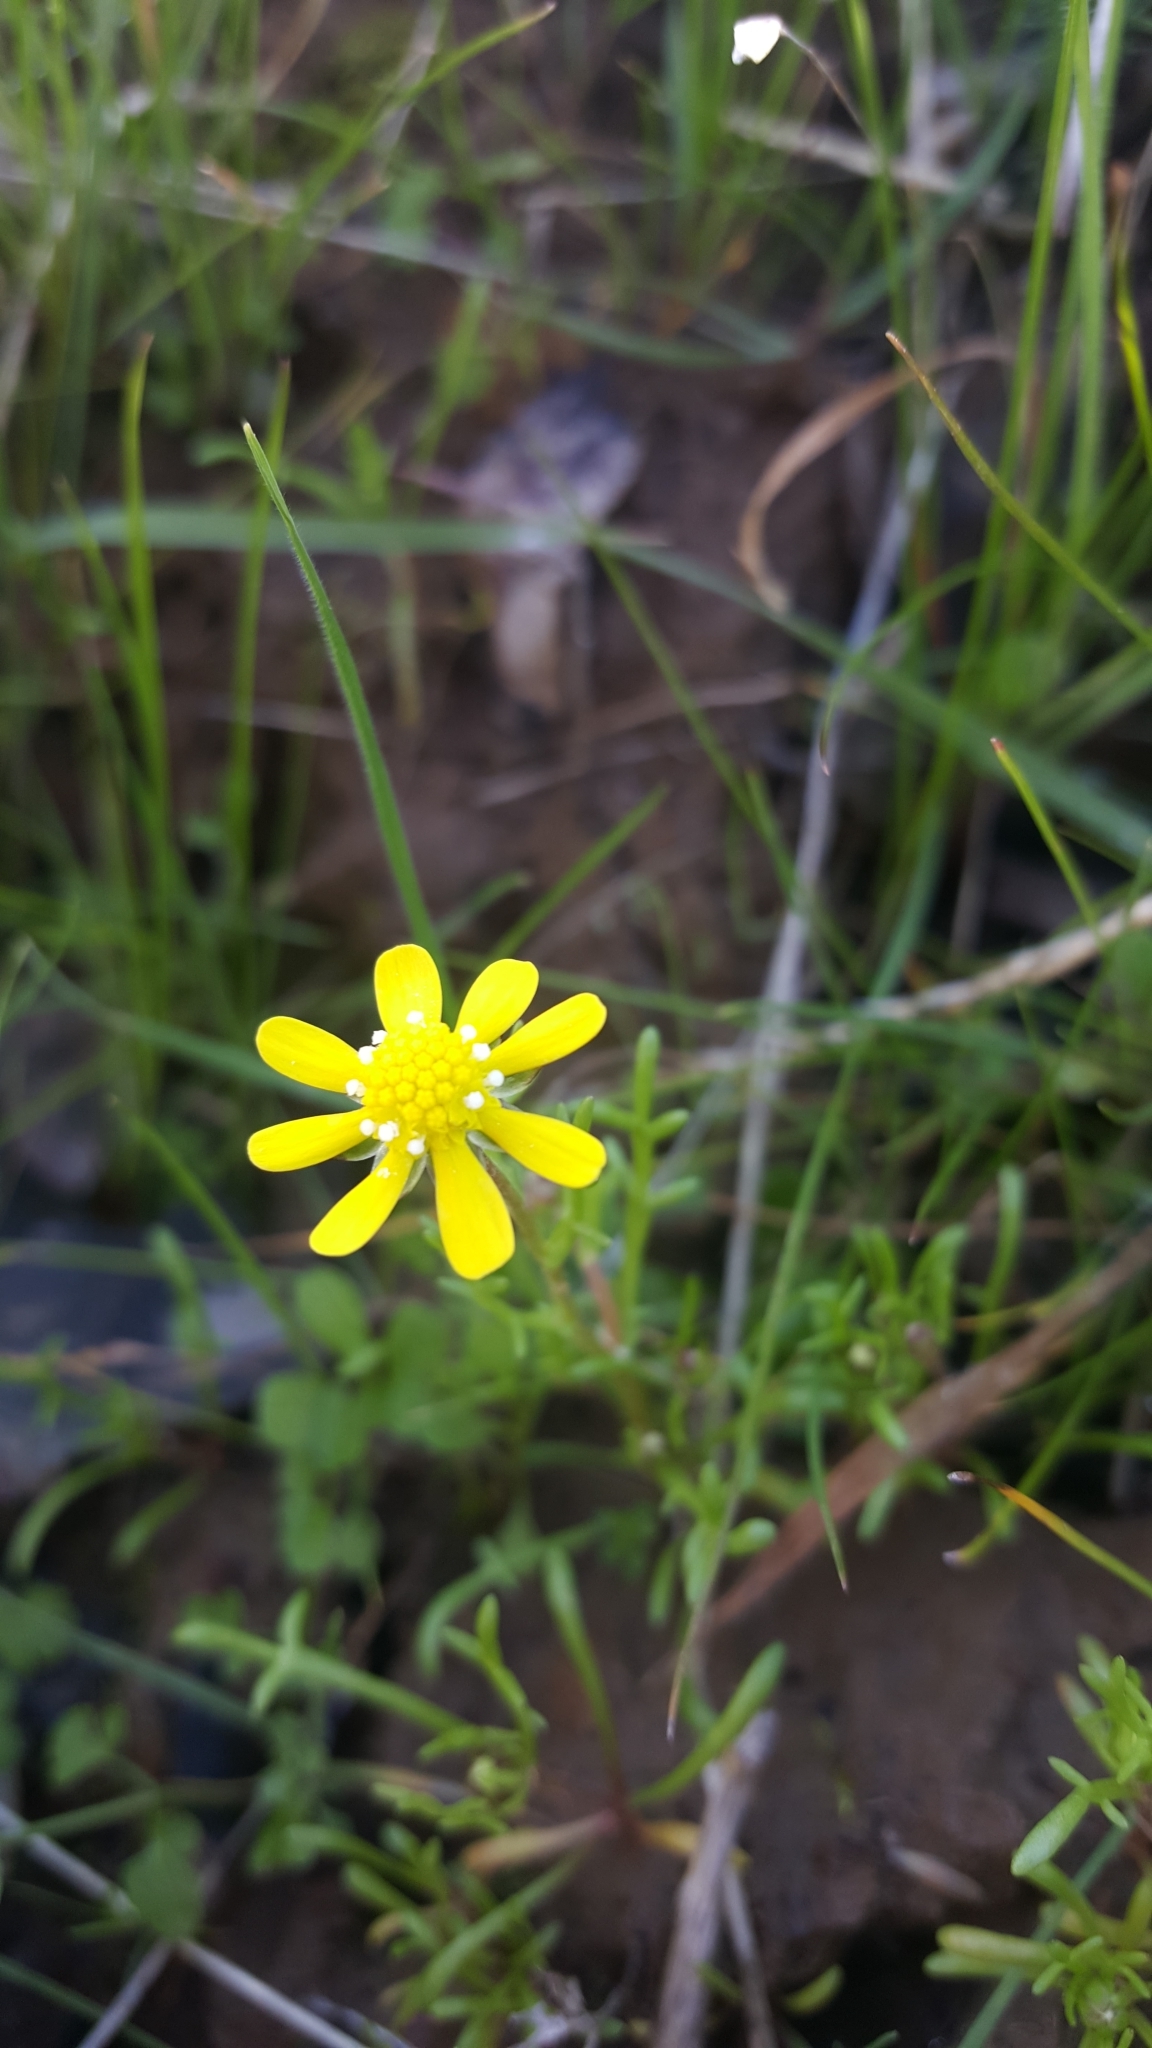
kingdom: Plantae
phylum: Tracheophyta
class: Magnoliopsida
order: Asterales
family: Asteraceae
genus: Blennosperma
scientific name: Blennosperma nanum
